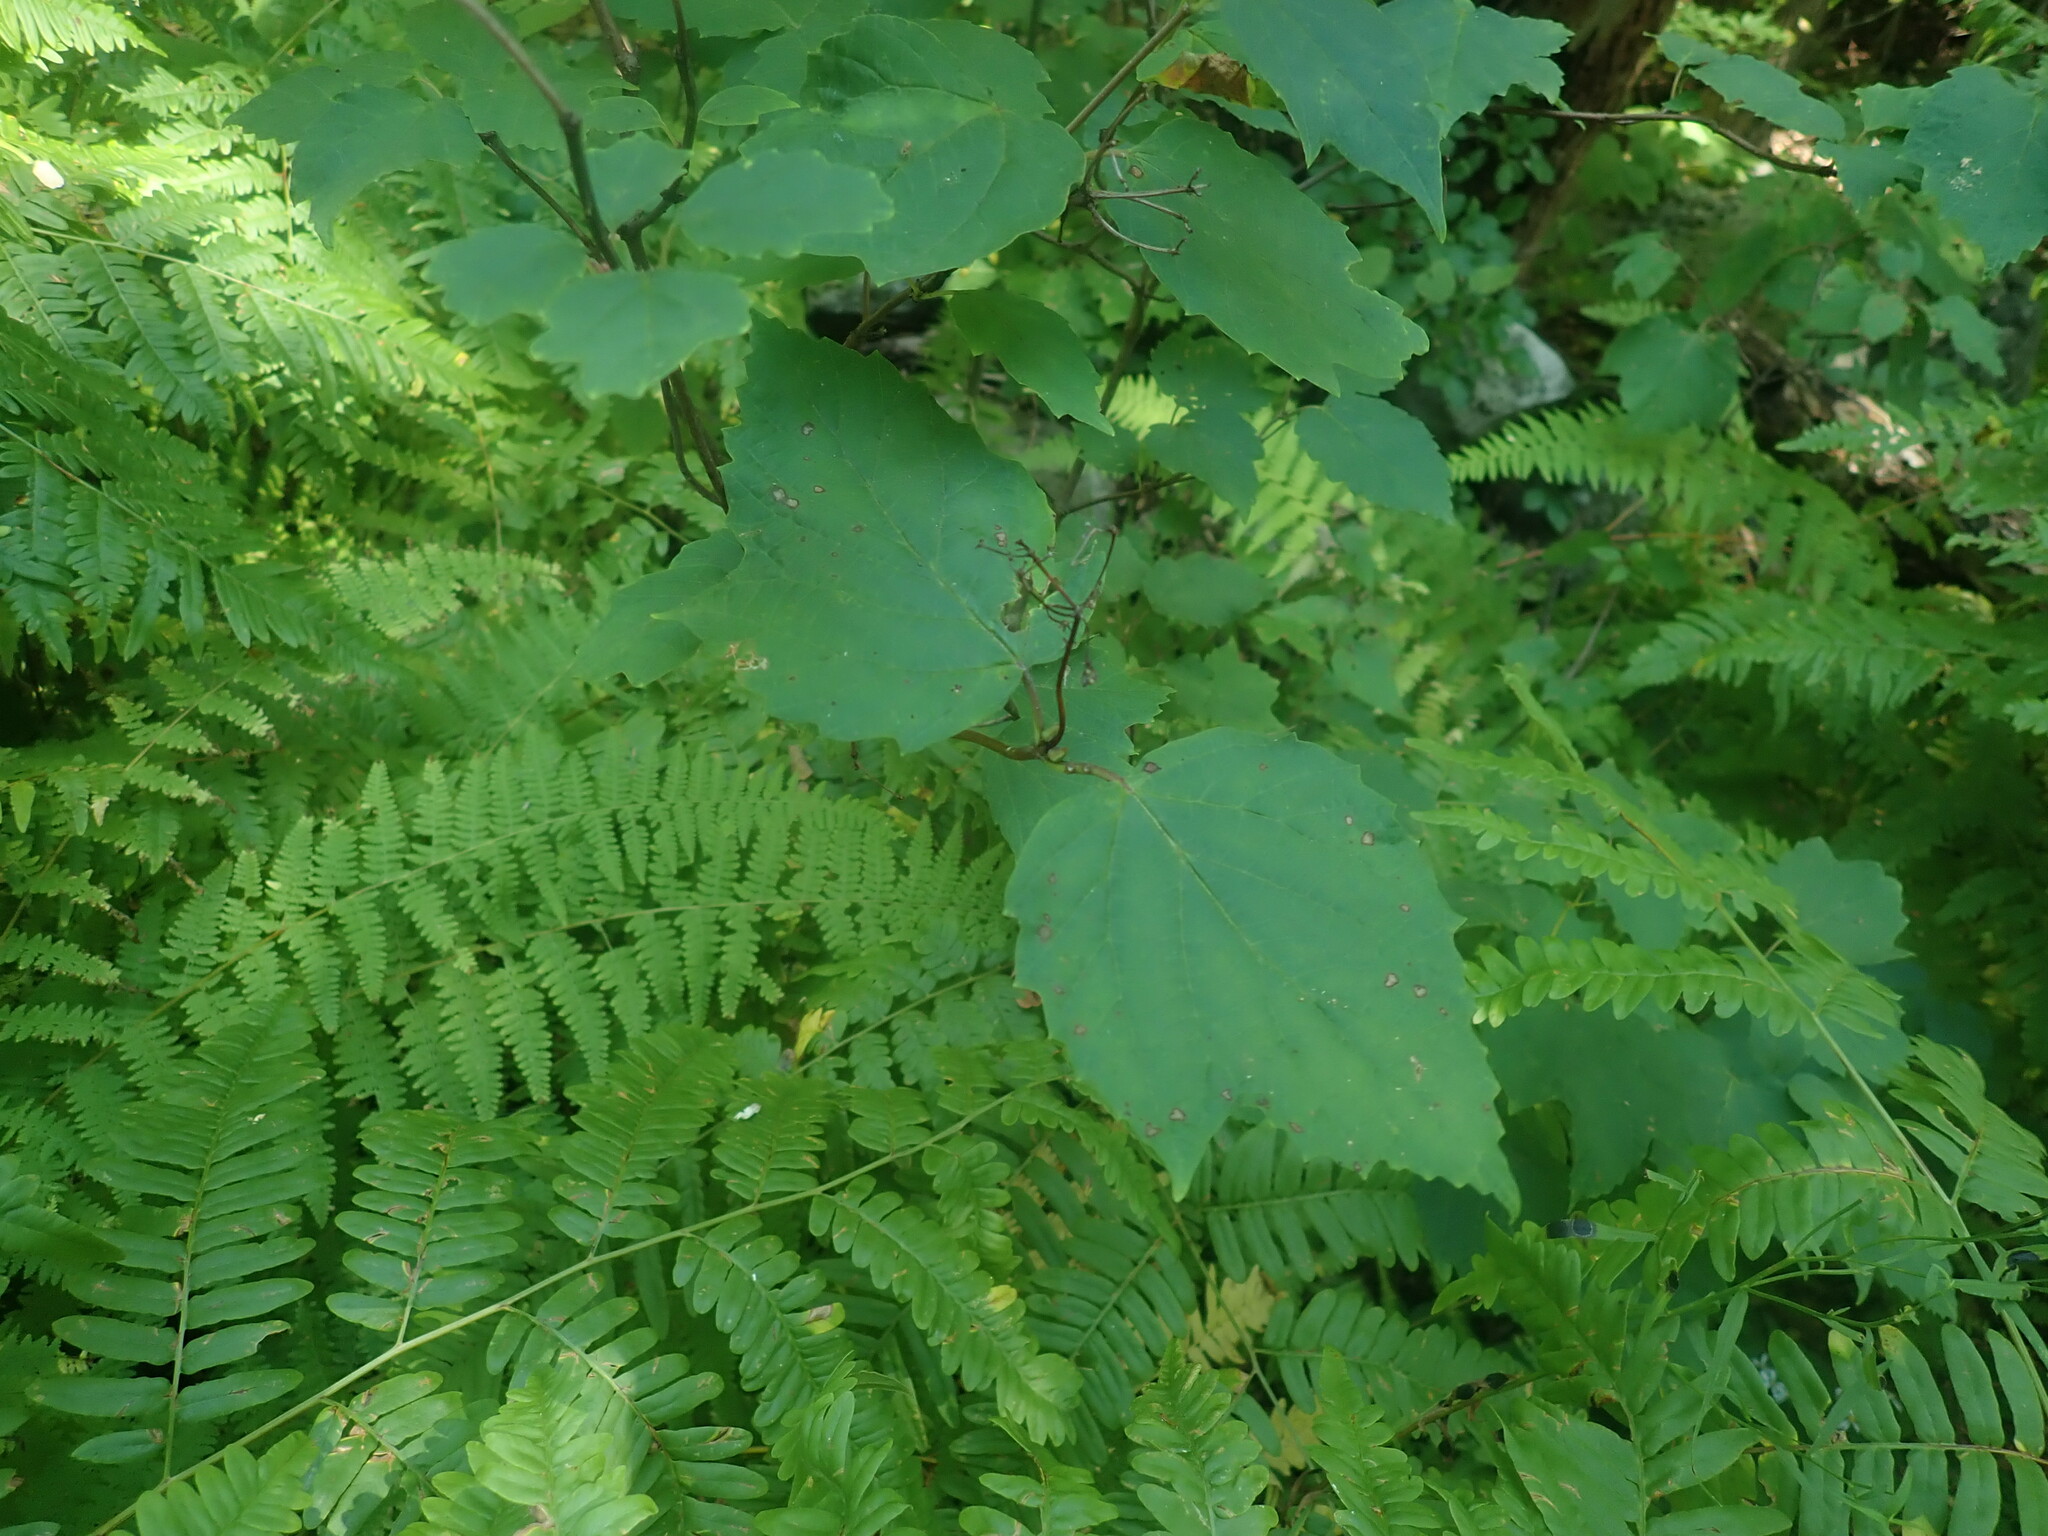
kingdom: Plantae
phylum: Tracheophyta
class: Magnoliopsida
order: Dipsacales
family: Viburnaceae
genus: Viburnum
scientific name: Viburnum acerifolium
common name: Dockmackie
